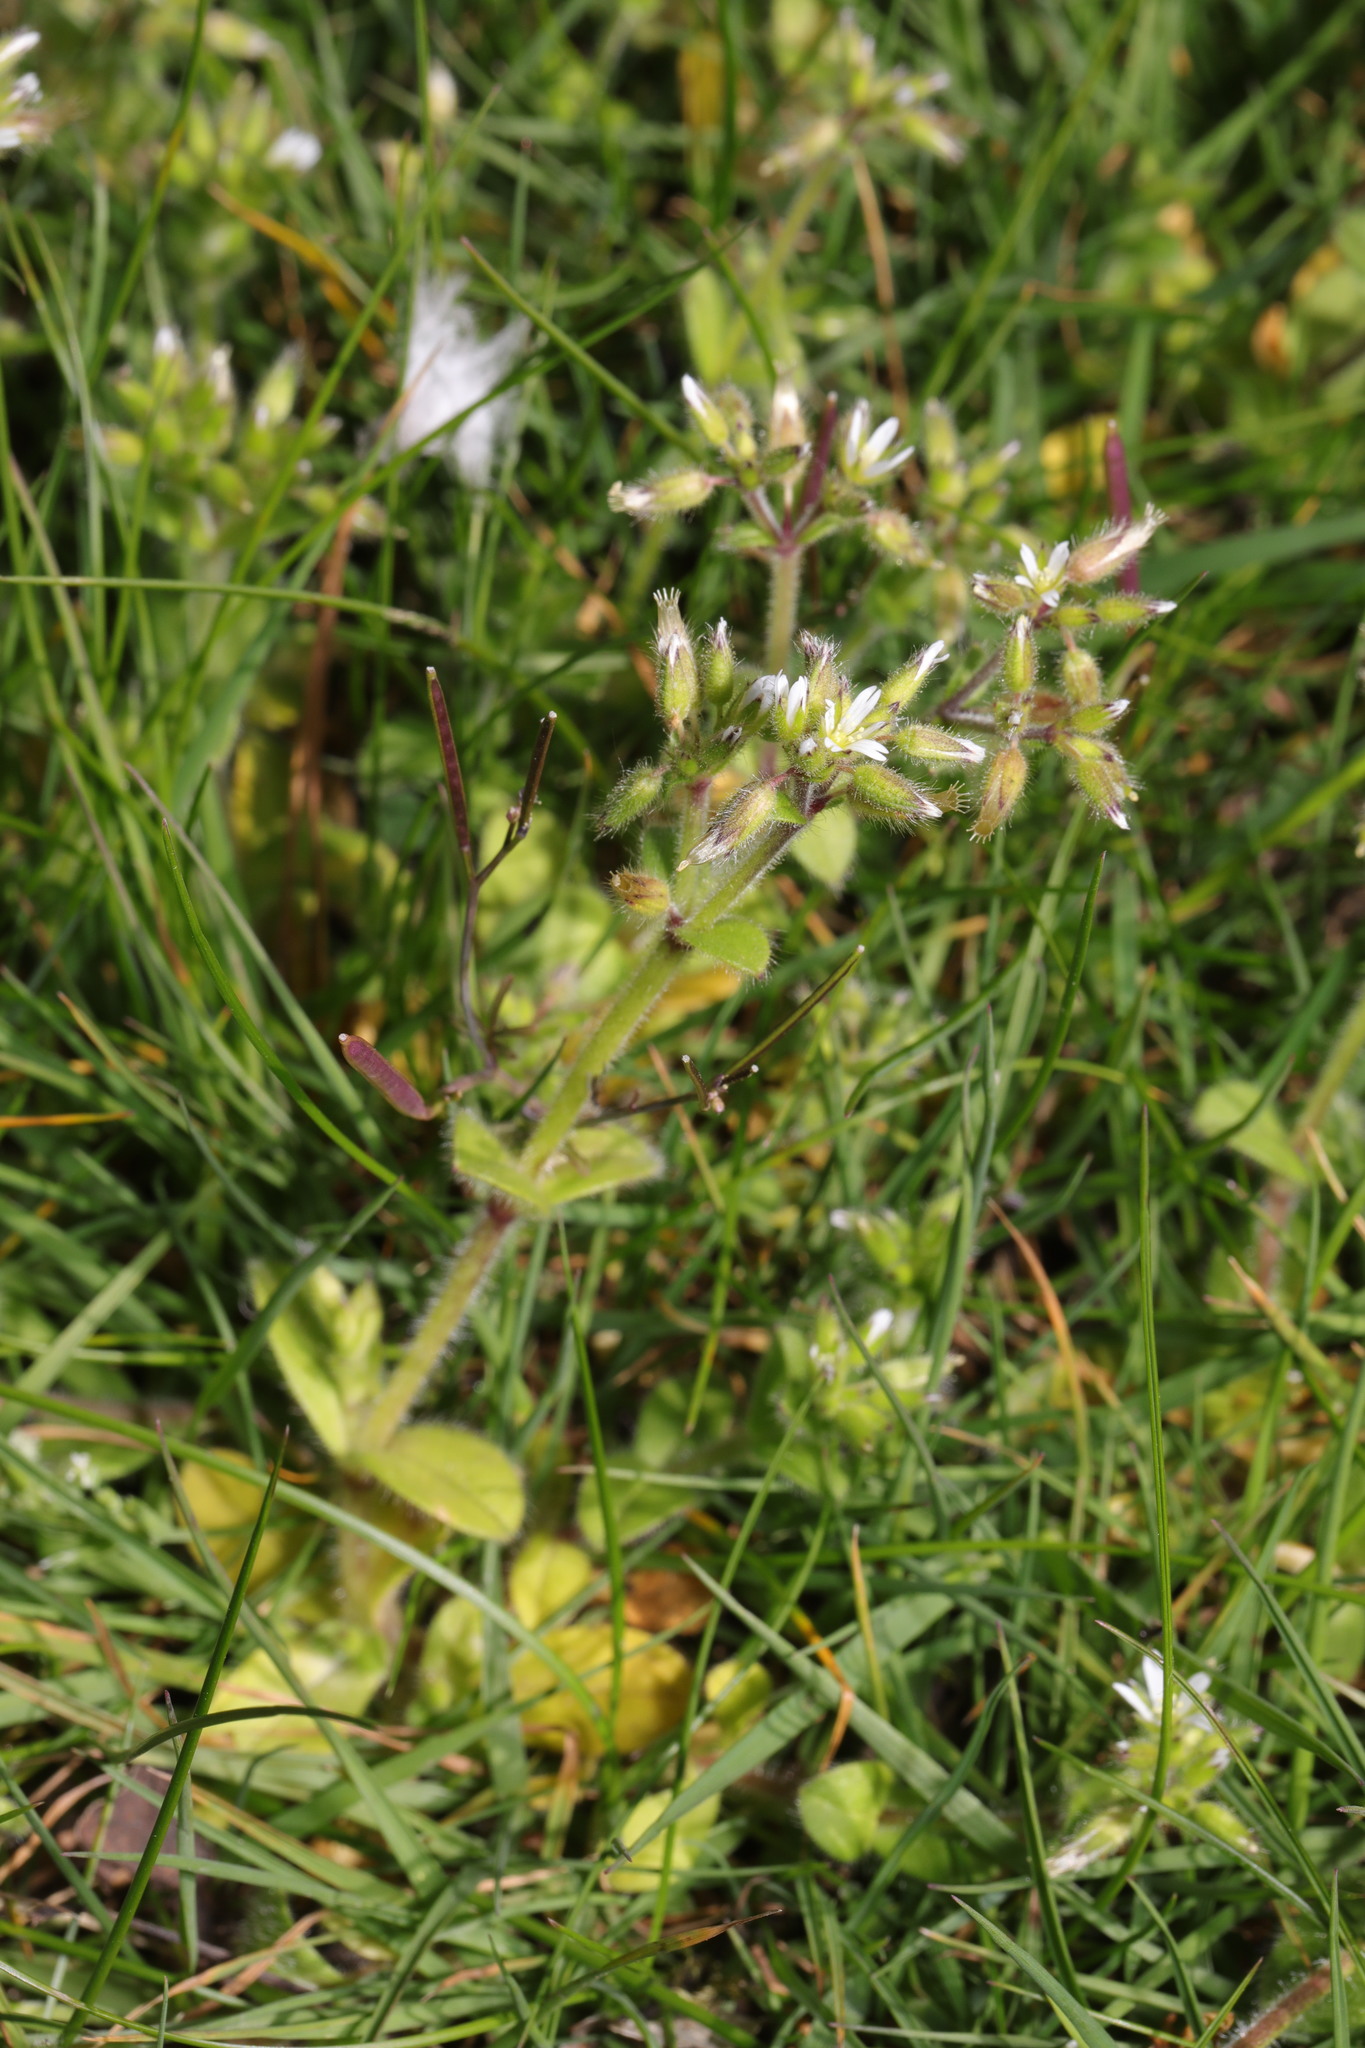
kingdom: Plantae
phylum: Tracheophyta
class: Magnoliopsida
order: Caryophyllales
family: Caryophyllaceae
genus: Cerastium
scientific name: Cerastium glomeratum
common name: Sticky chickweed
